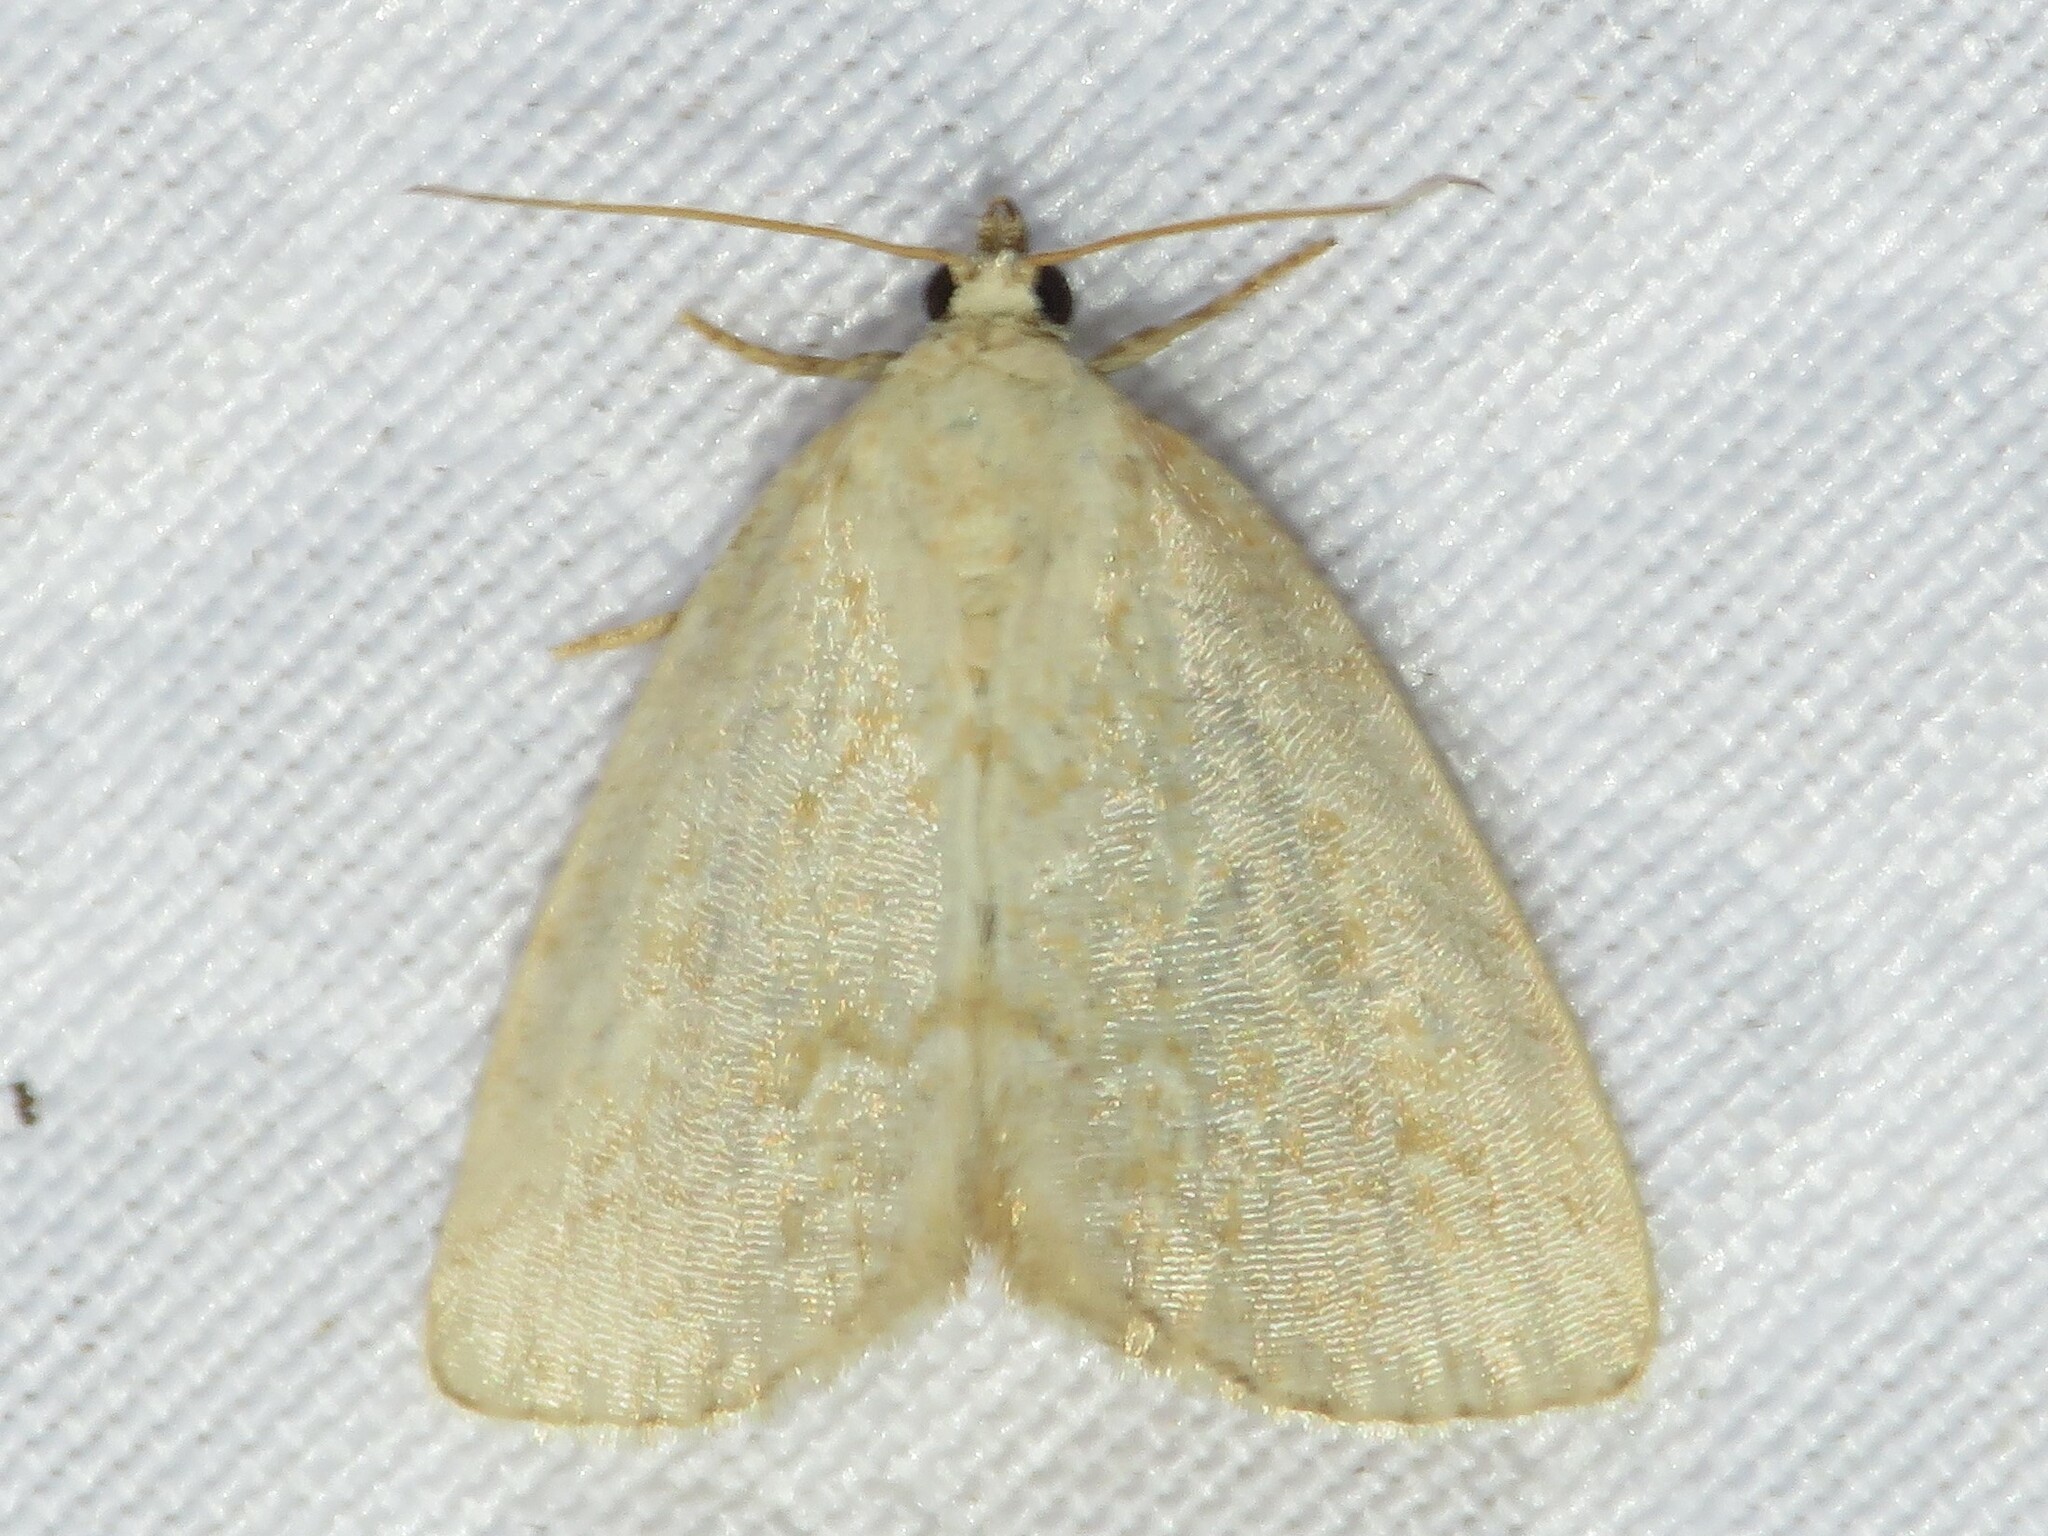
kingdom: Animalia
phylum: Arthropoda
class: Insecta
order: Lepidoptera
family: Noctuidae
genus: Protodeltote
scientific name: Protodeltote albidula
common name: Pale glyph
